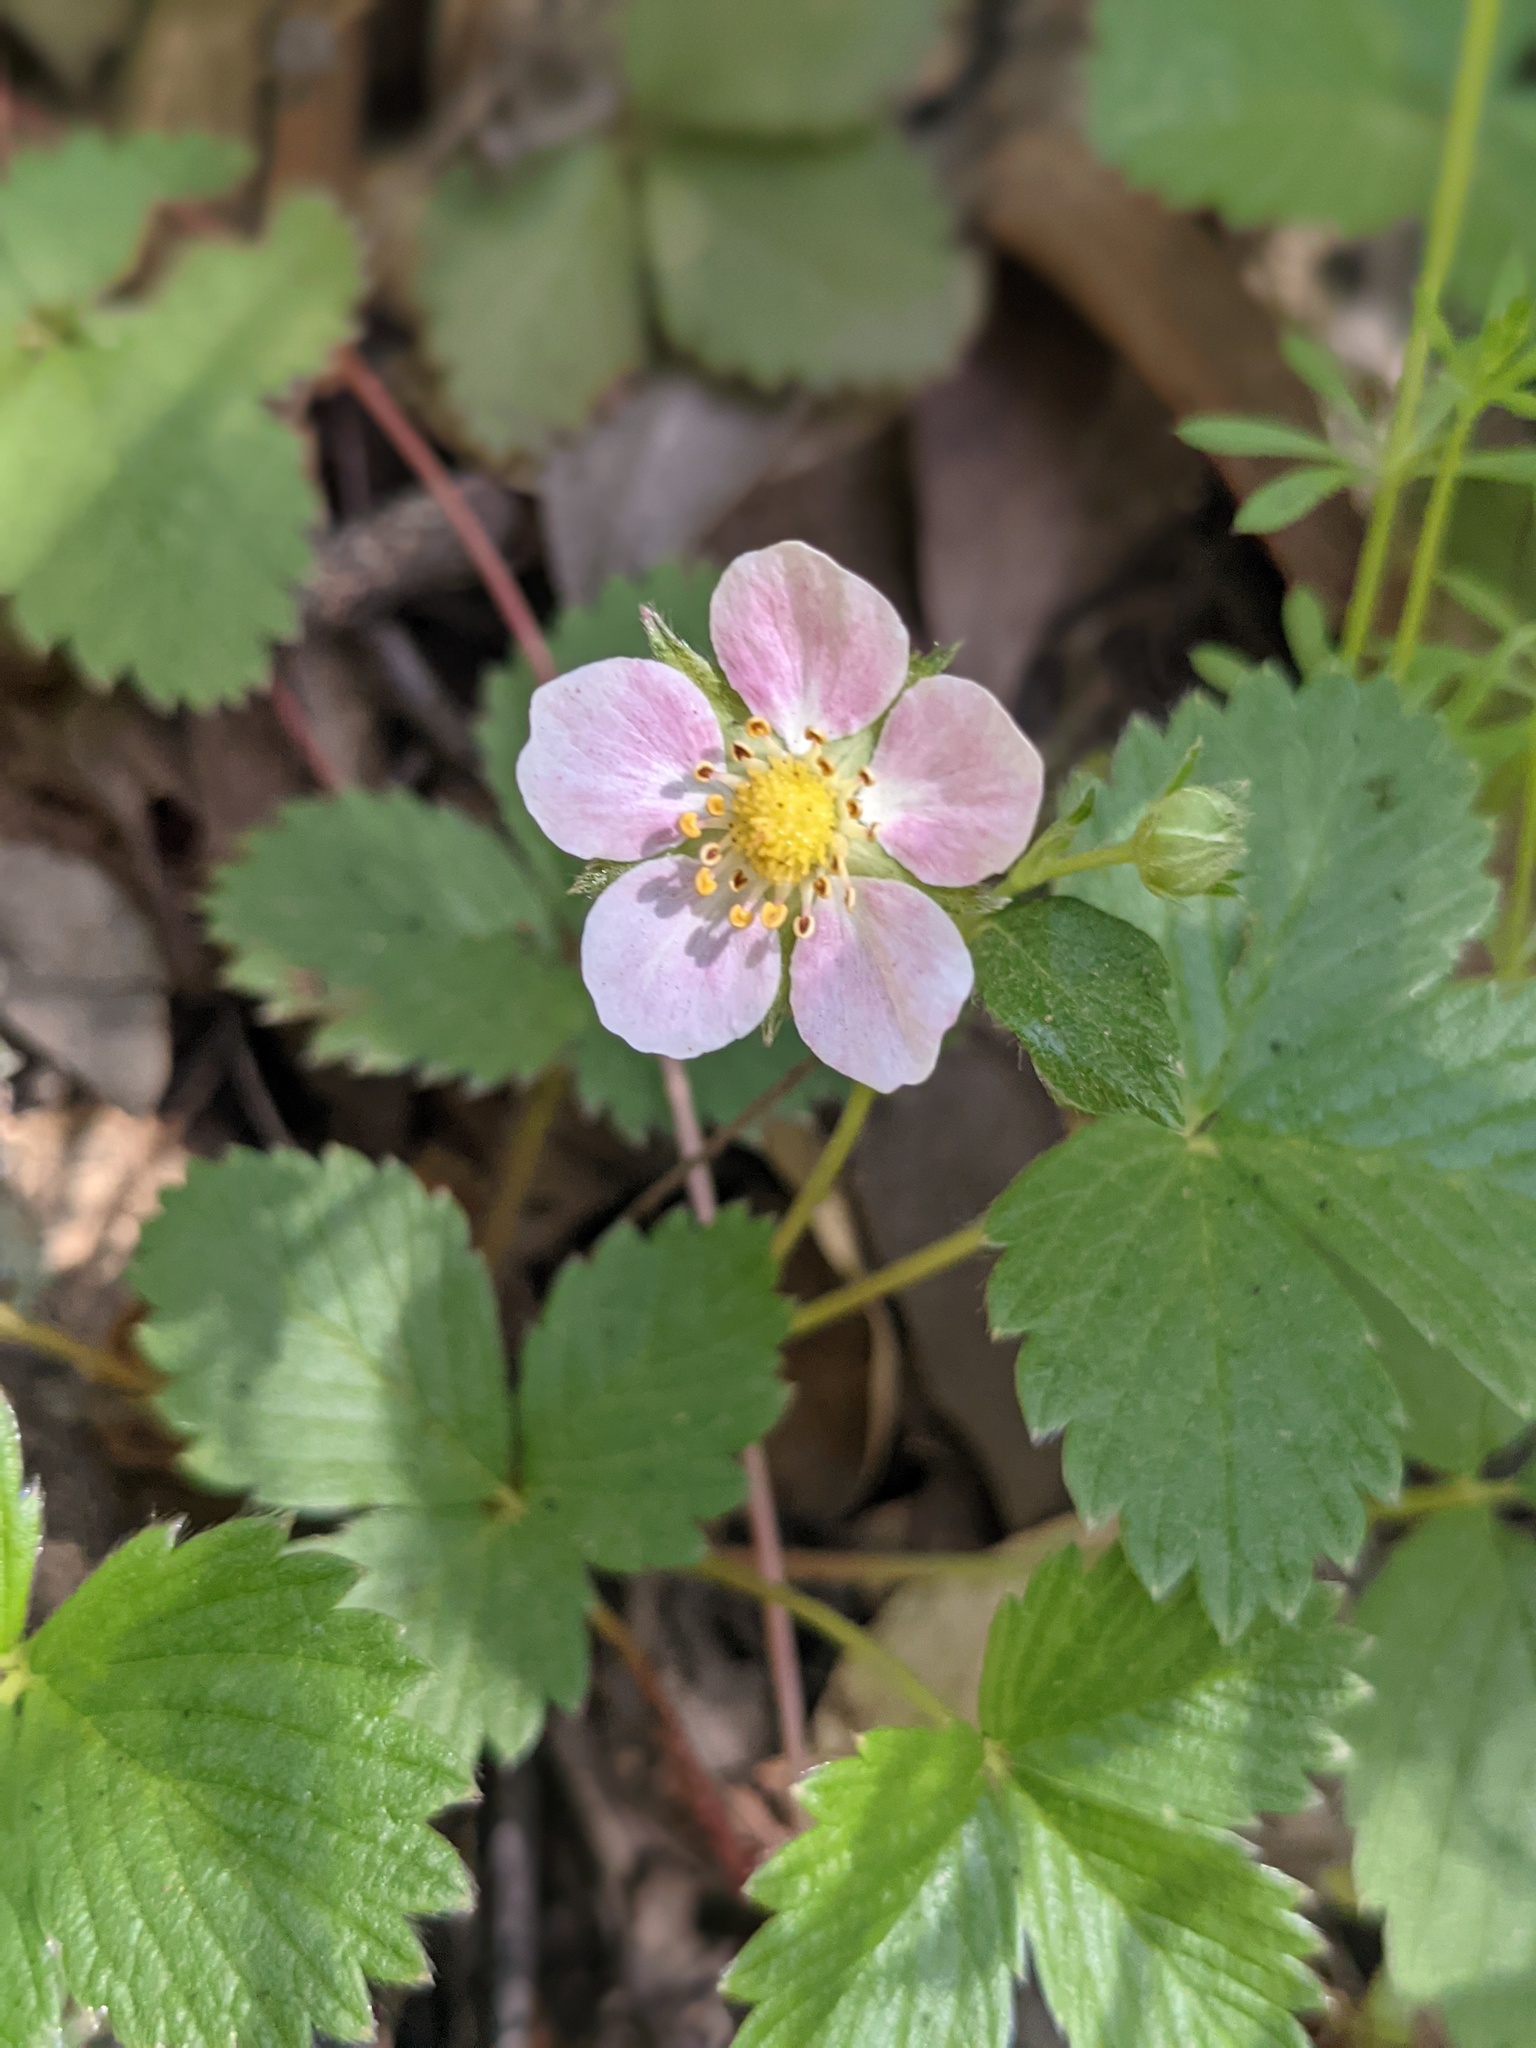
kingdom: Plantae
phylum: Tracheophyta
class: Magnoliopsida
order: Rosales
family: Rosaceae
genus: Fragaria
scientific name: Fragaria vesca
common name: Wild strawberry
